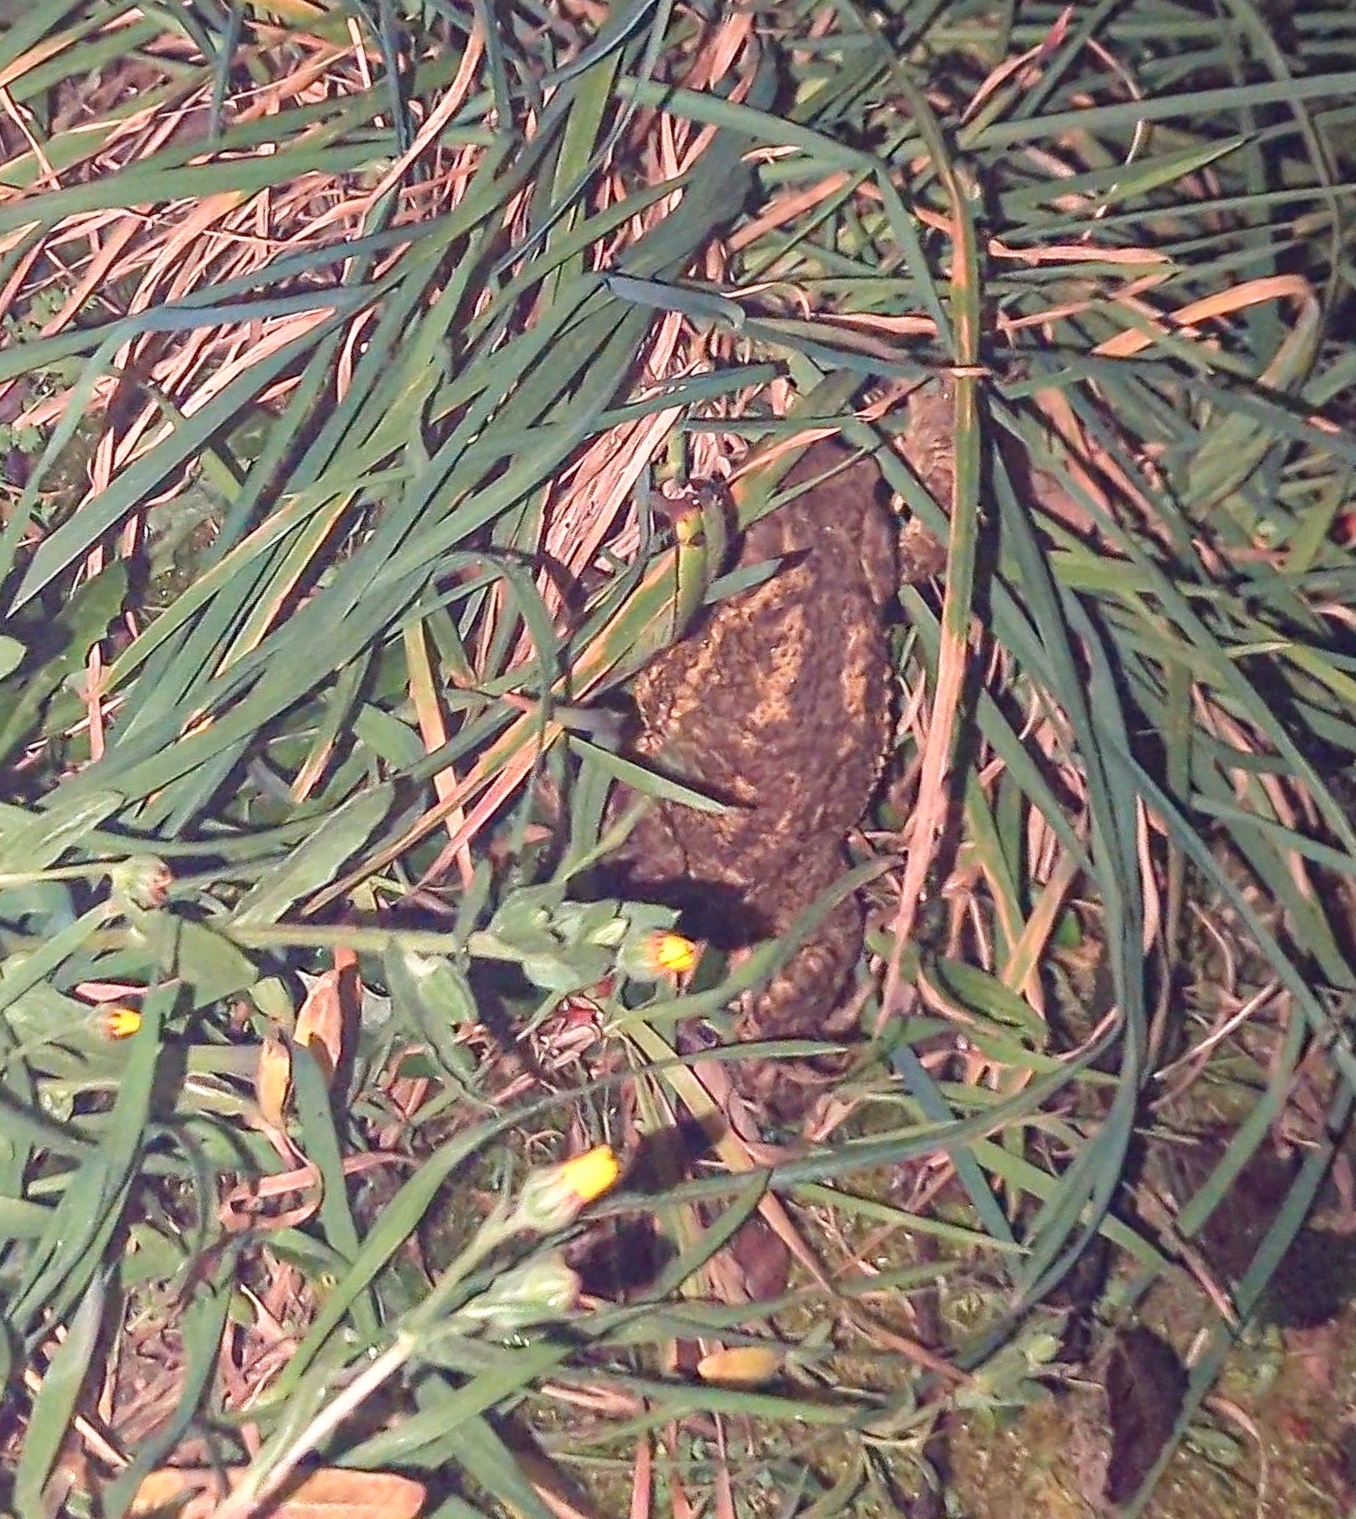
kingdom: Animalia
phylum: Chordata
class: Amphibia
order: Anura
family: Bufonidae
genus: Bufo
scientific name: Bufo spinosus
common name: Western common toad
